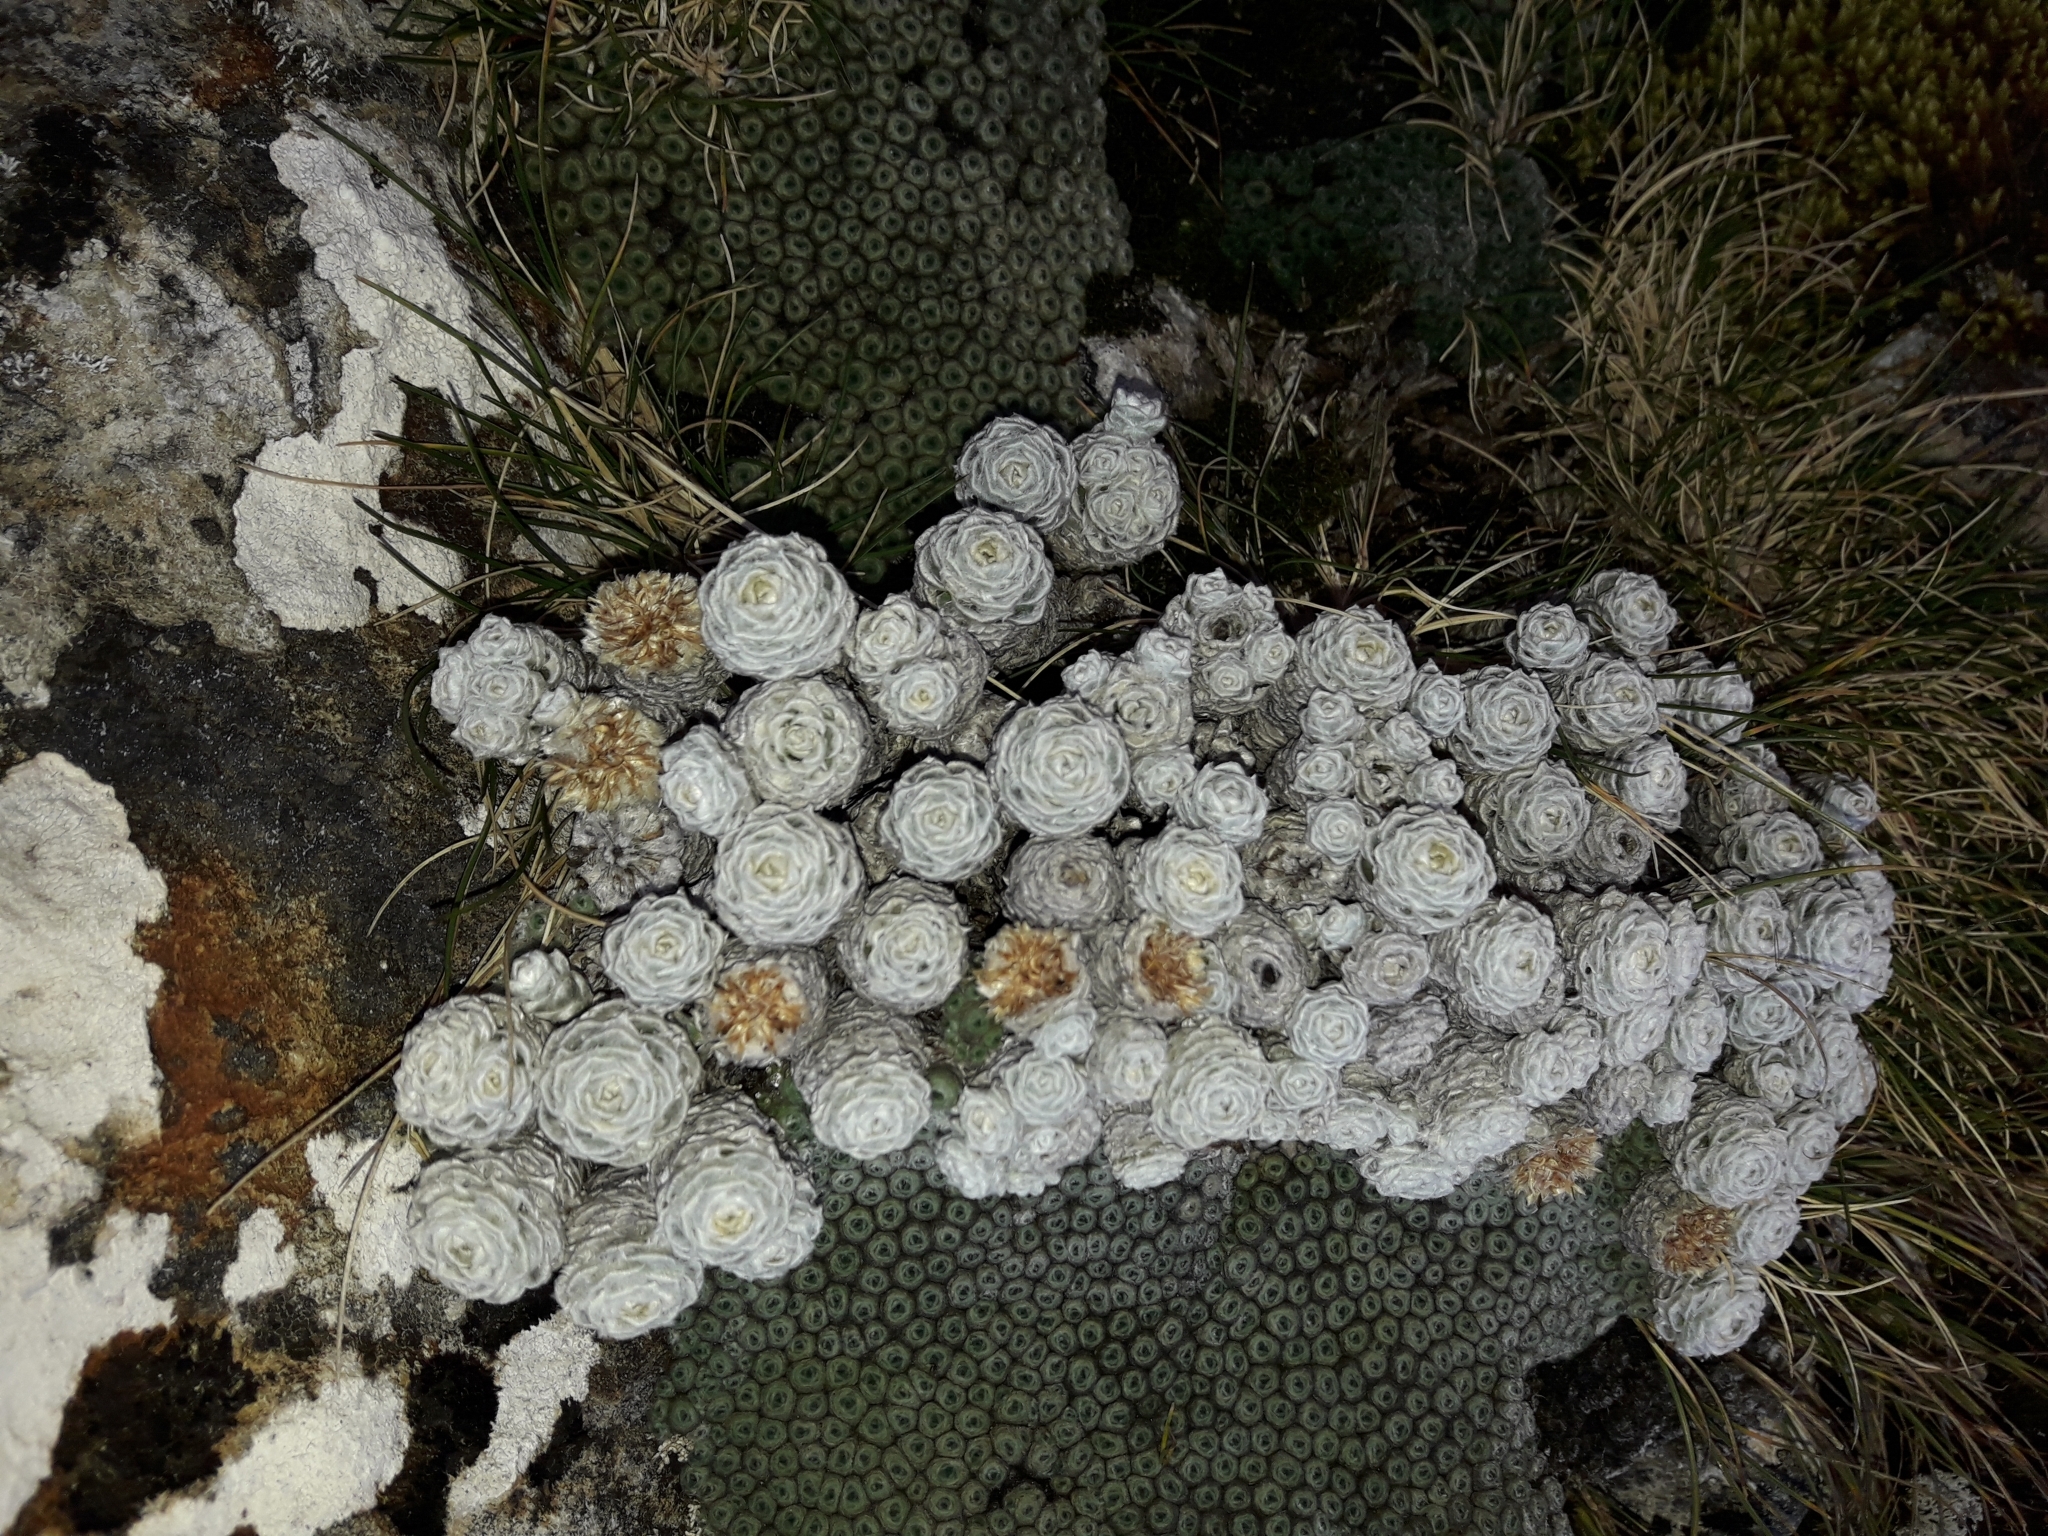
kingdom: Plantae
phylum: Tracheophyta
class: Magnoliopsida
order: Asterales
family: Asteraceae
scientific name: Asteraceae
